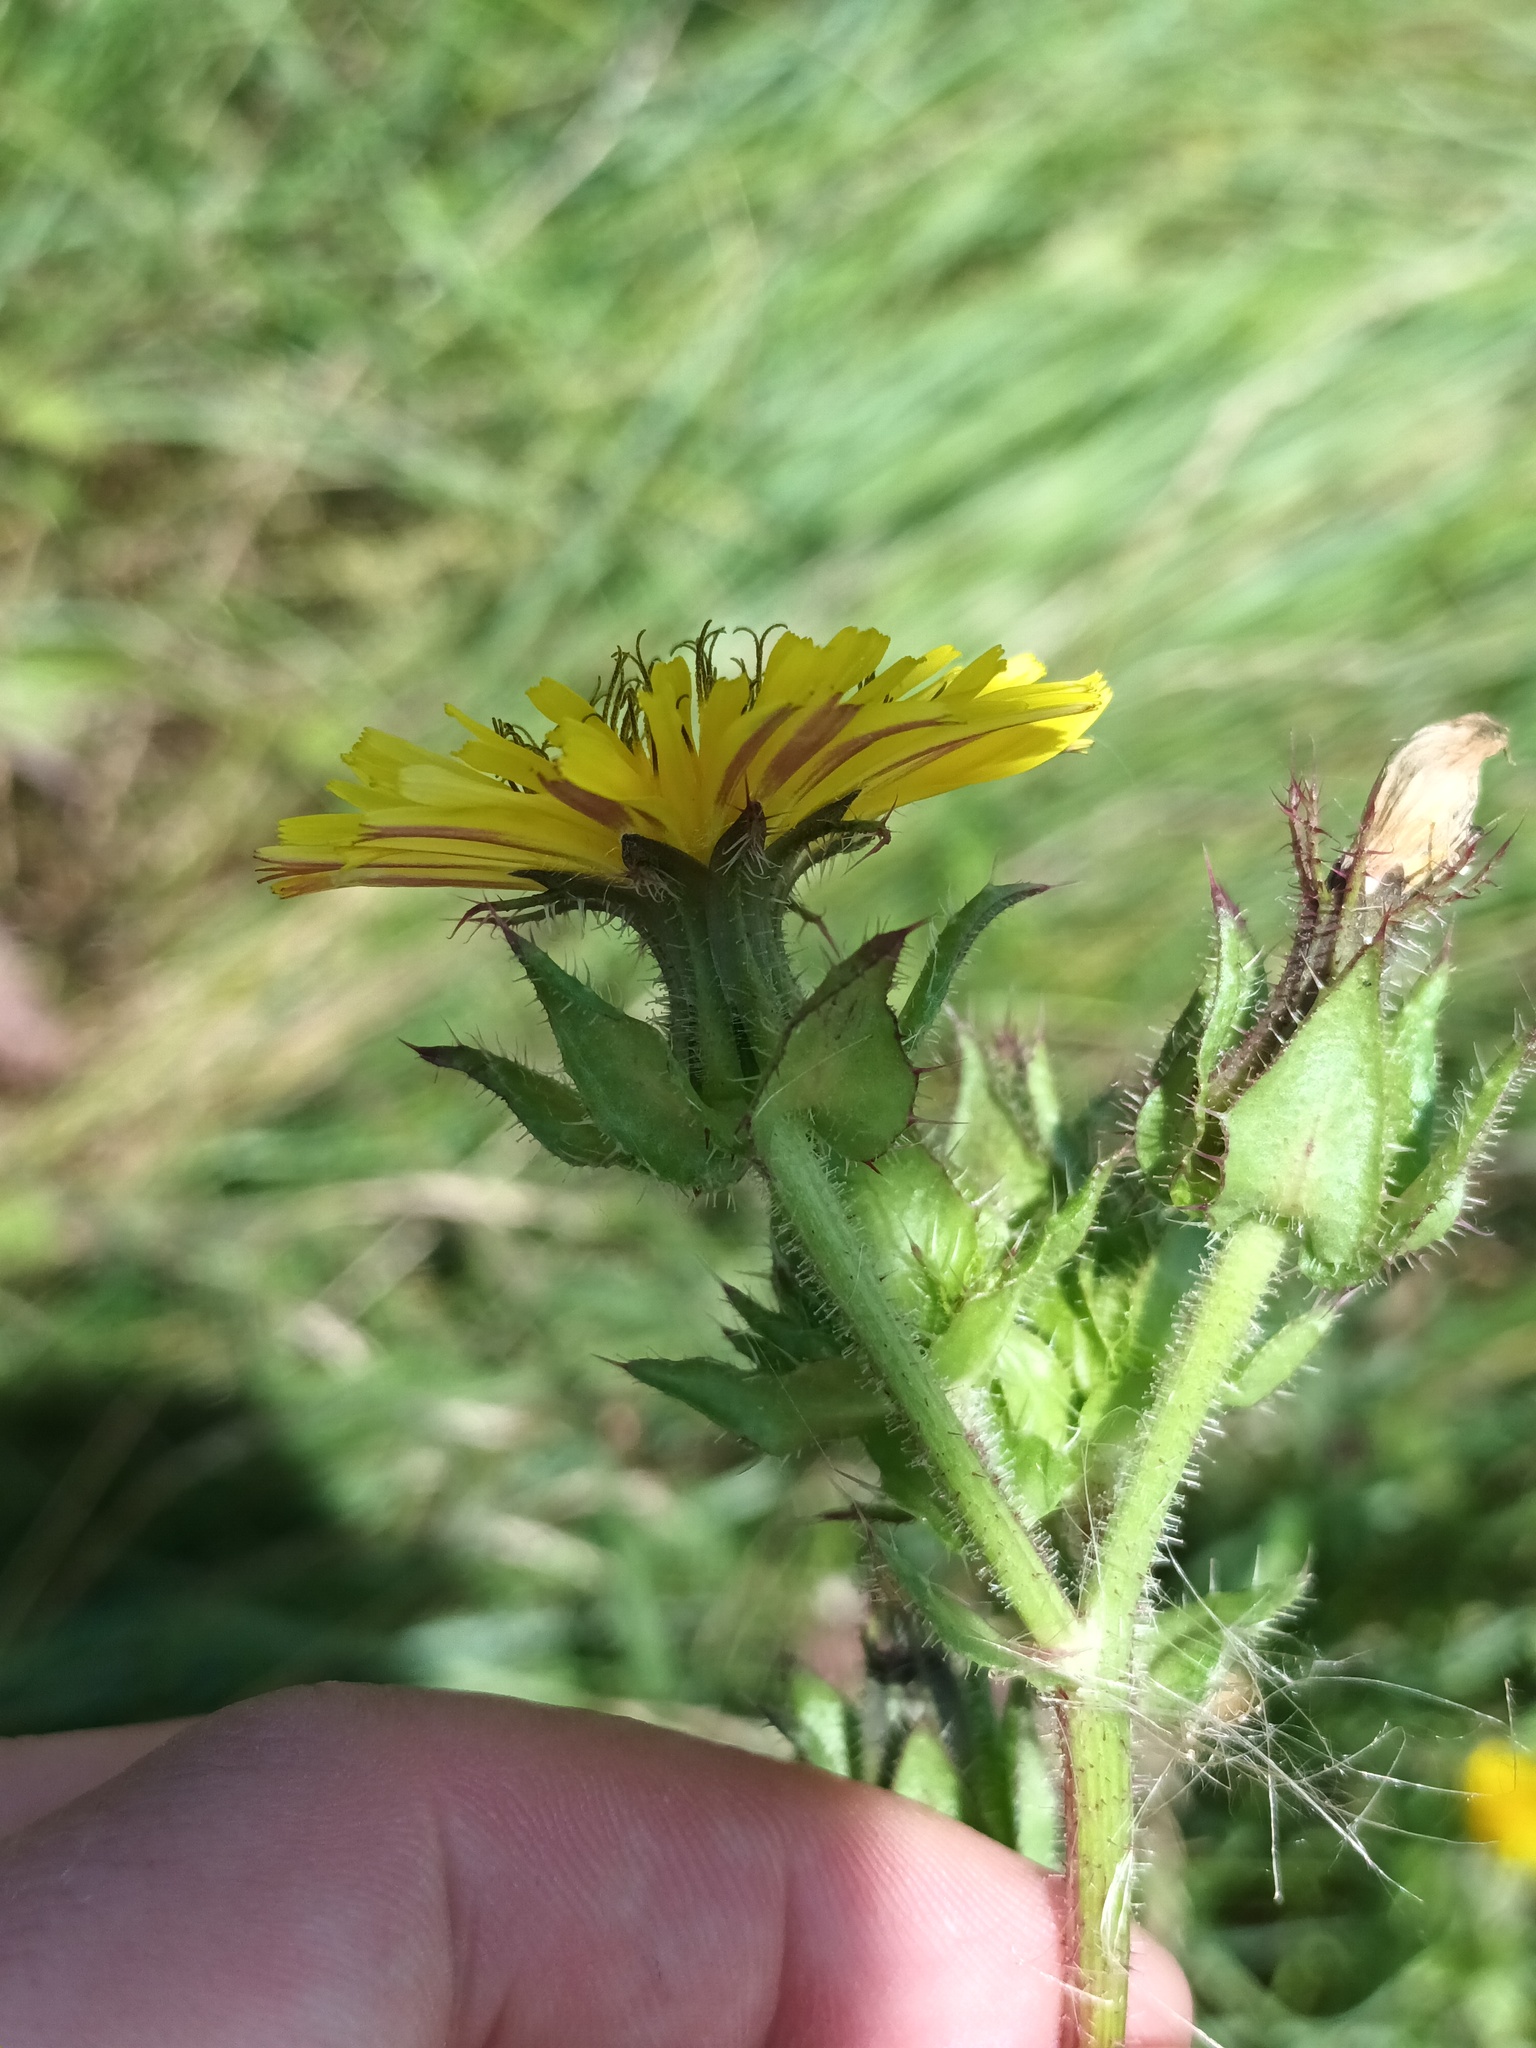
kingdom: Plantae
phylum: Tracheophyta
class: Magnoliopsida
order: Asterales
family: Asteraceae
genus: Helminthotheca
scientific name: Helminthotheca echioides
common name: Ox-tongue
